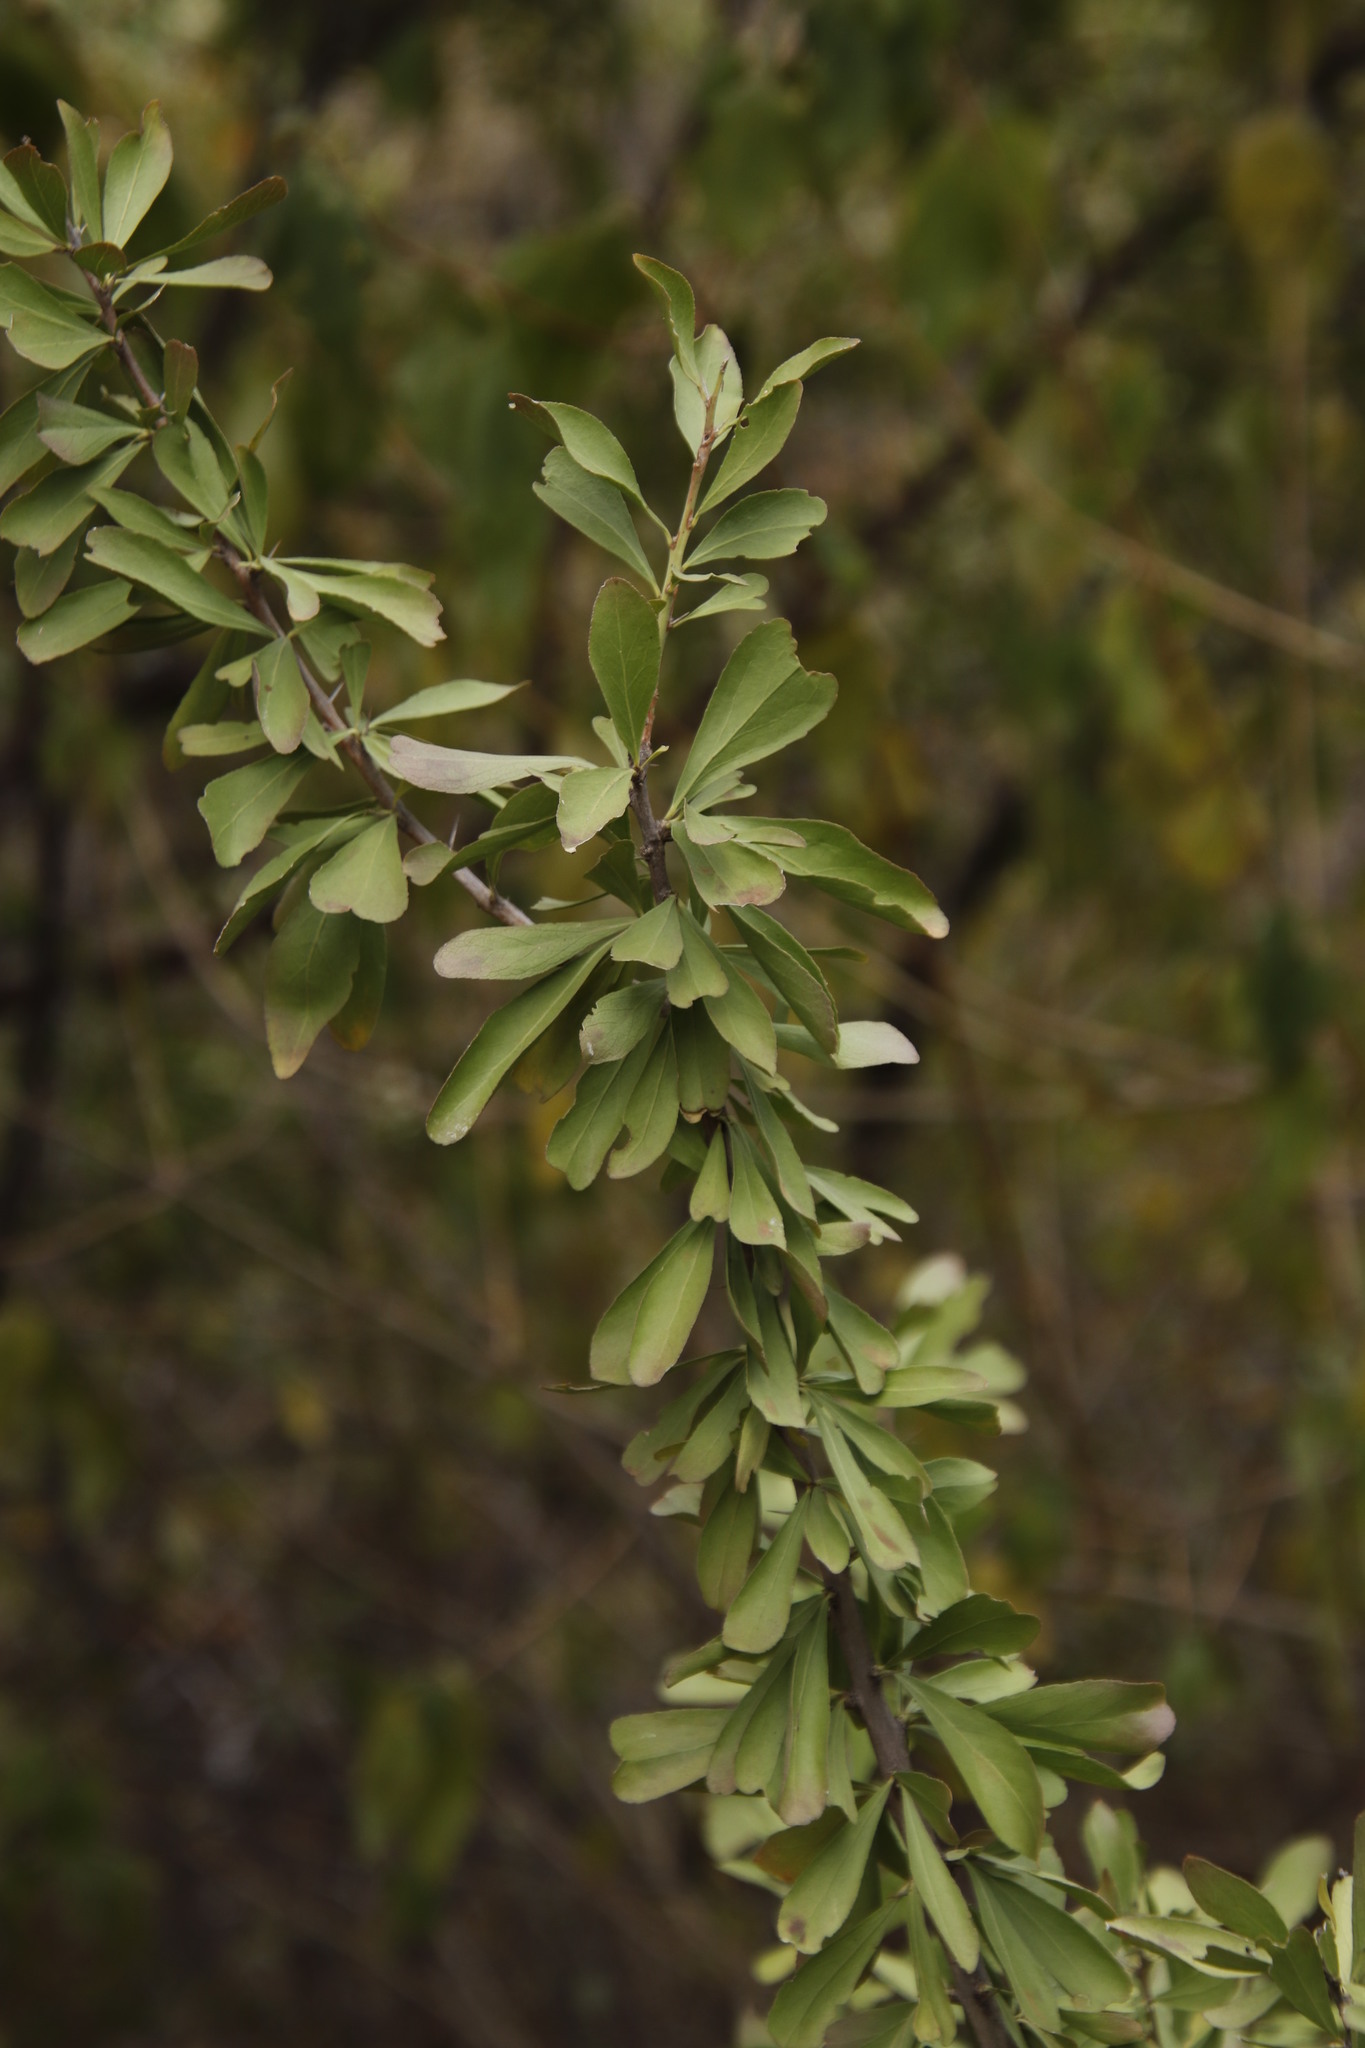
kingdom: Plantae
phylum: Tracheophyta
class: Magnoliopsida
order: Celastrales
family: Celastraceae
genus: Gymnosporia
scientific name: Gymnosporia buxifolia
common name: Common spike-thorn
